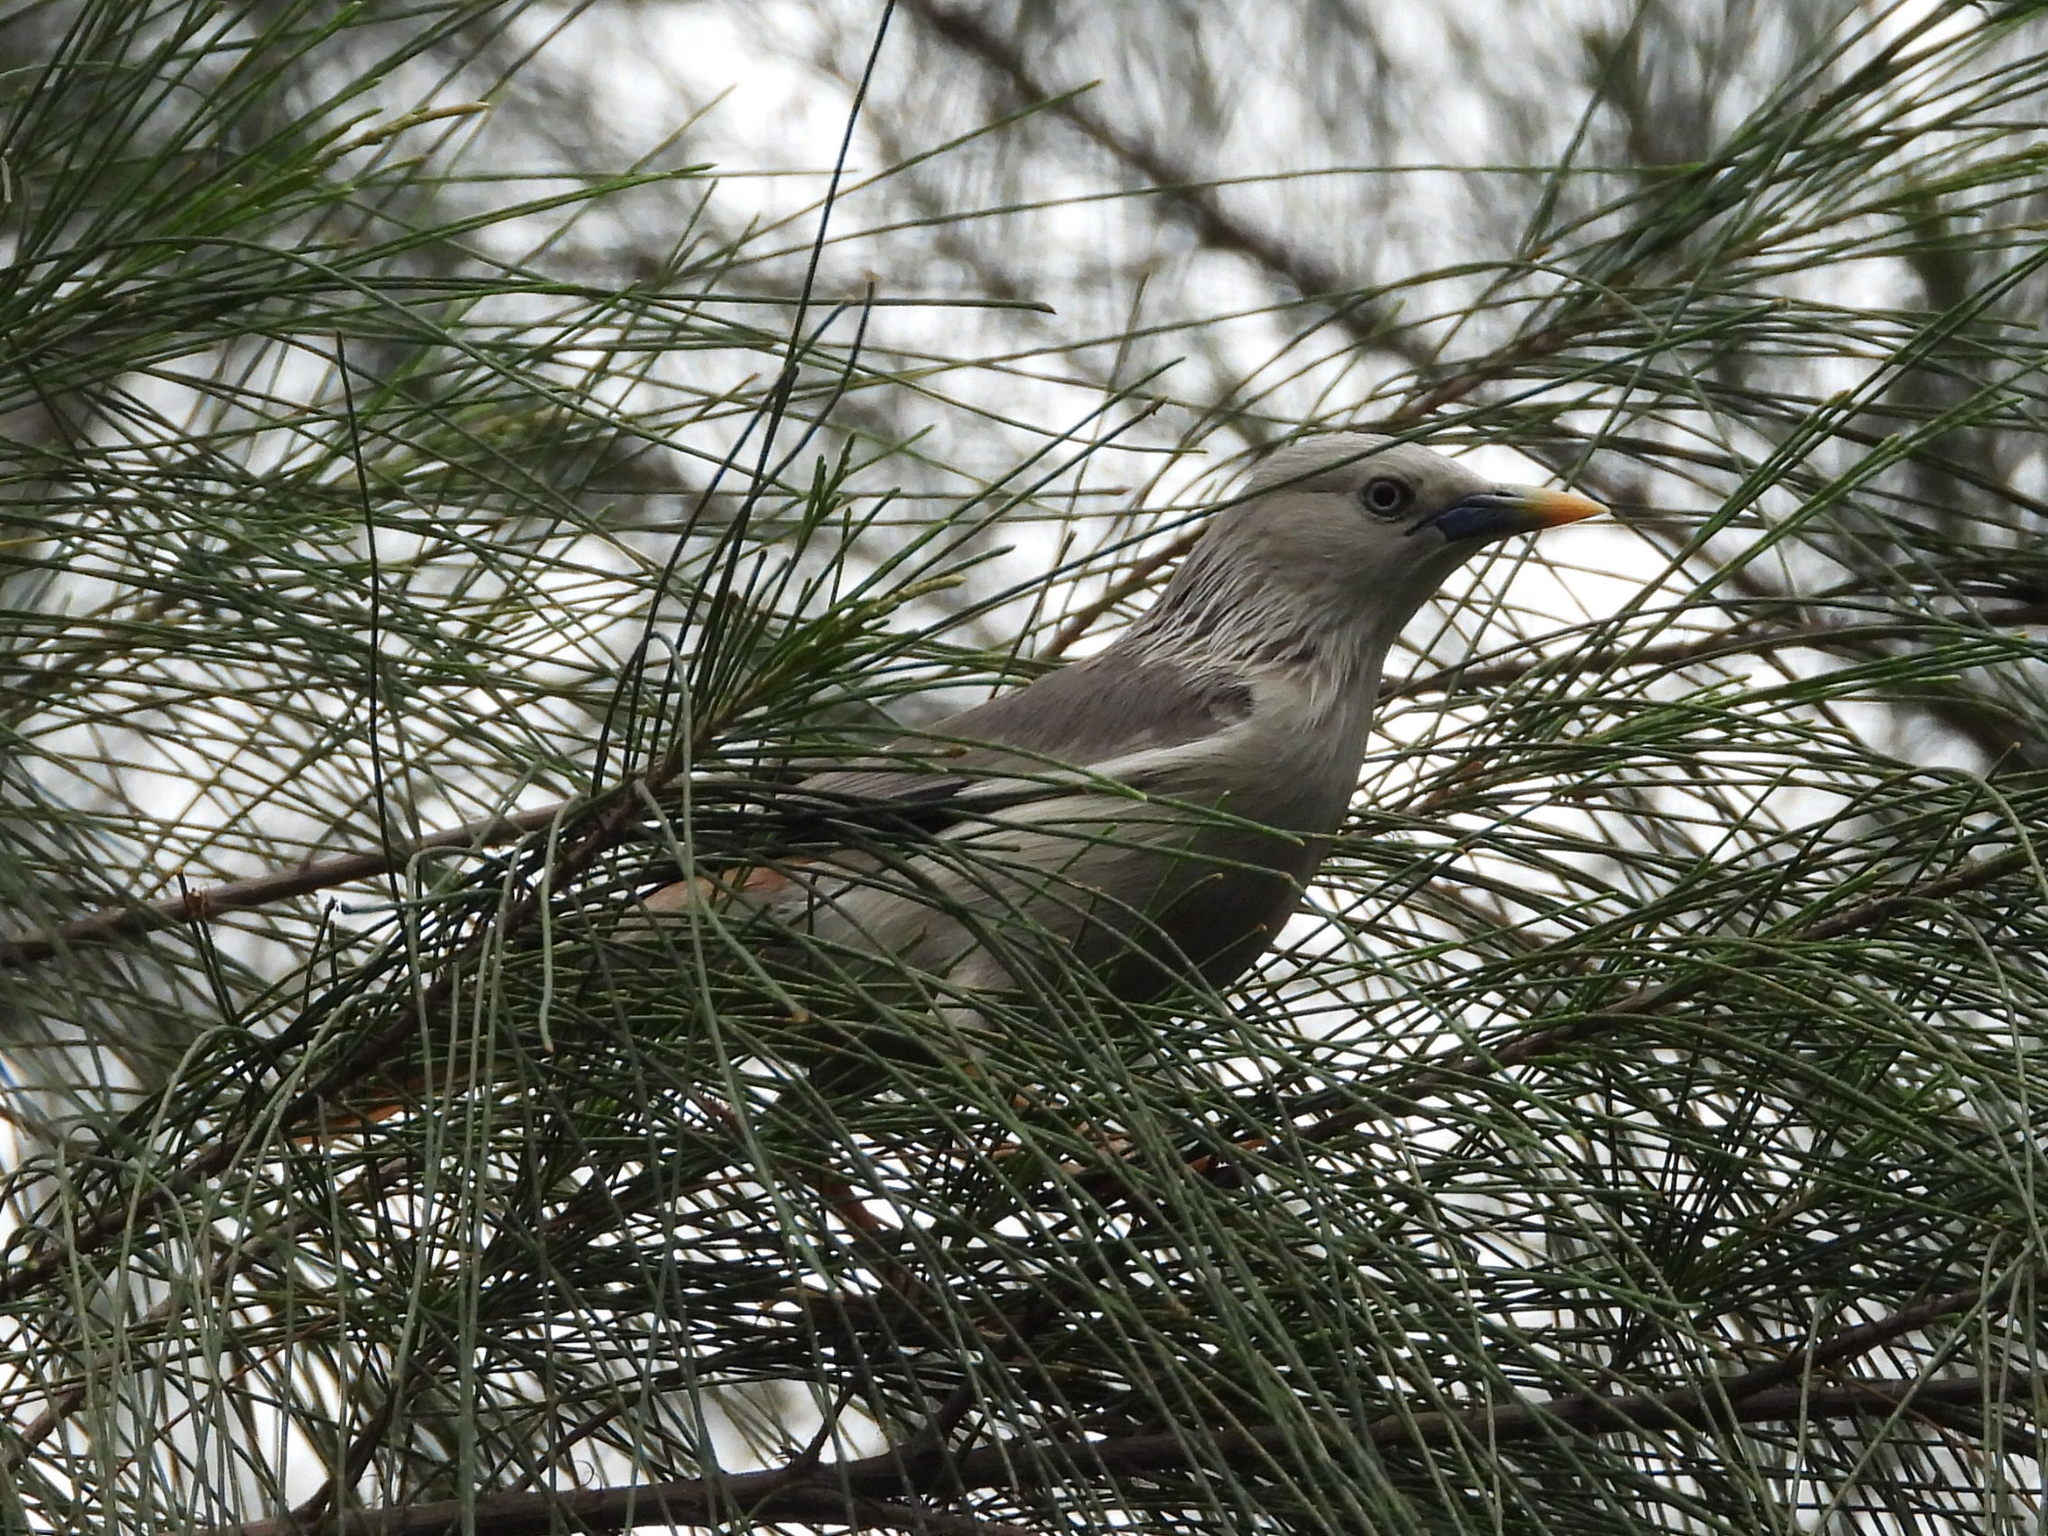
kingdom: Animalia
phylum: Chordata
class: Aves
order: Passeriformes
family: Sturnidae
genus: Sturnia
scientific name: Sturnia malabarica
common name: Chestnut-tailed starling
